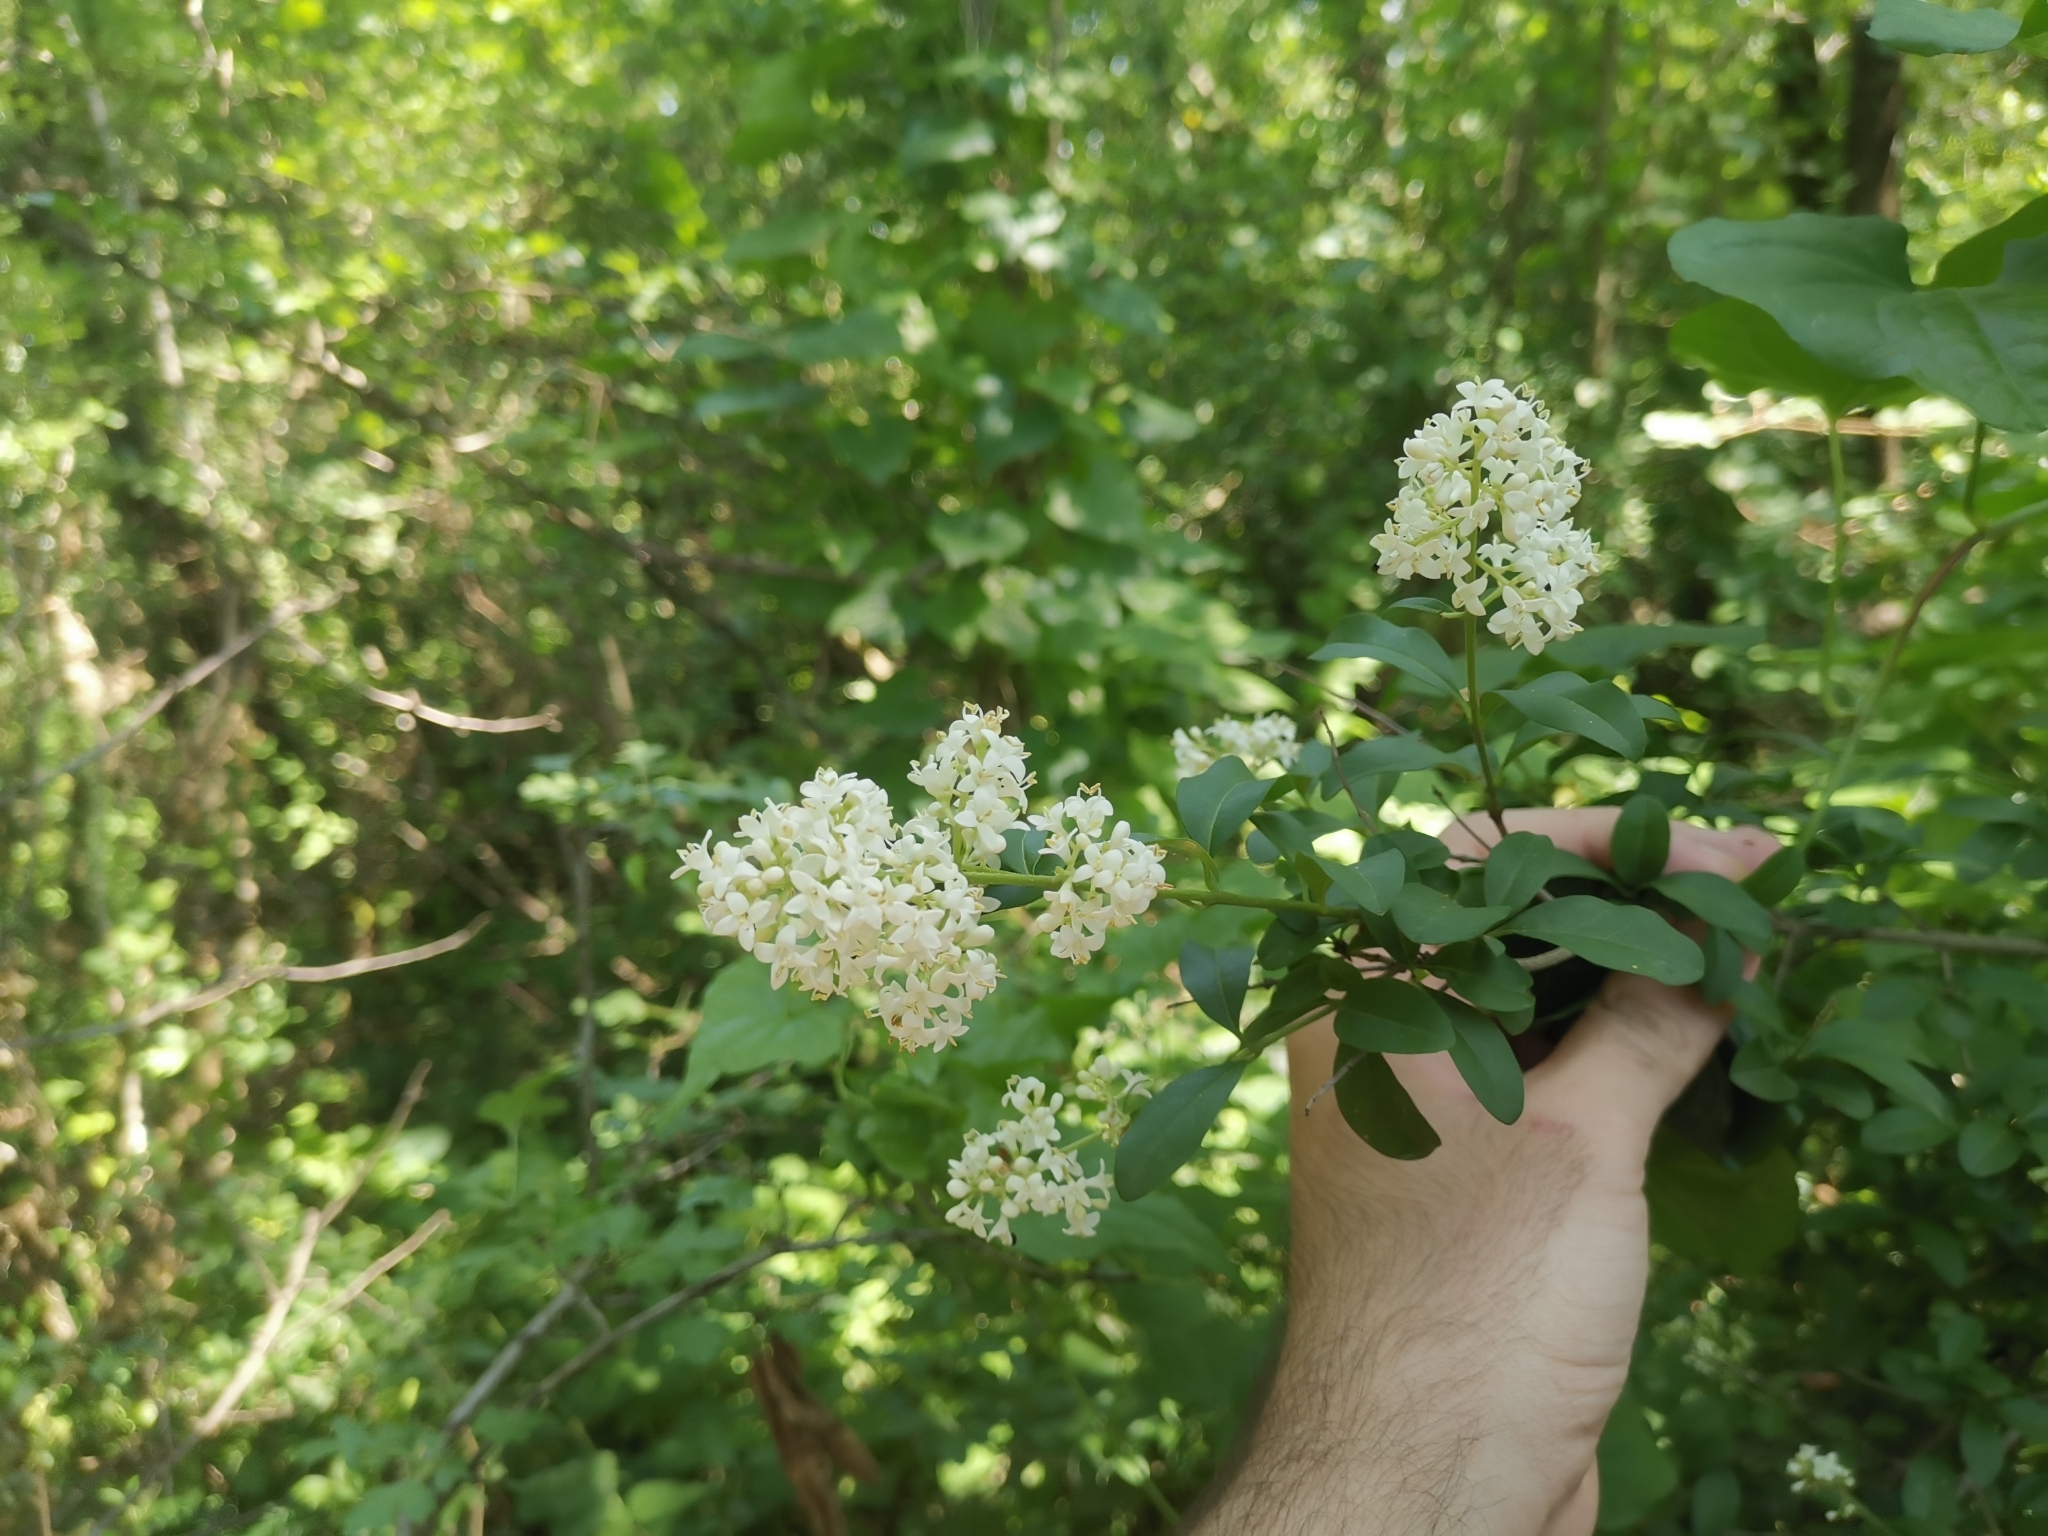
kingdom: Plantae
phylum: Tracheophyta
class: Magnoliopsida
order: Lamiales
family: Oleaceae
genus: Ligustrum
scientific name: Ligustrum vulgare
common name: Wild privet
